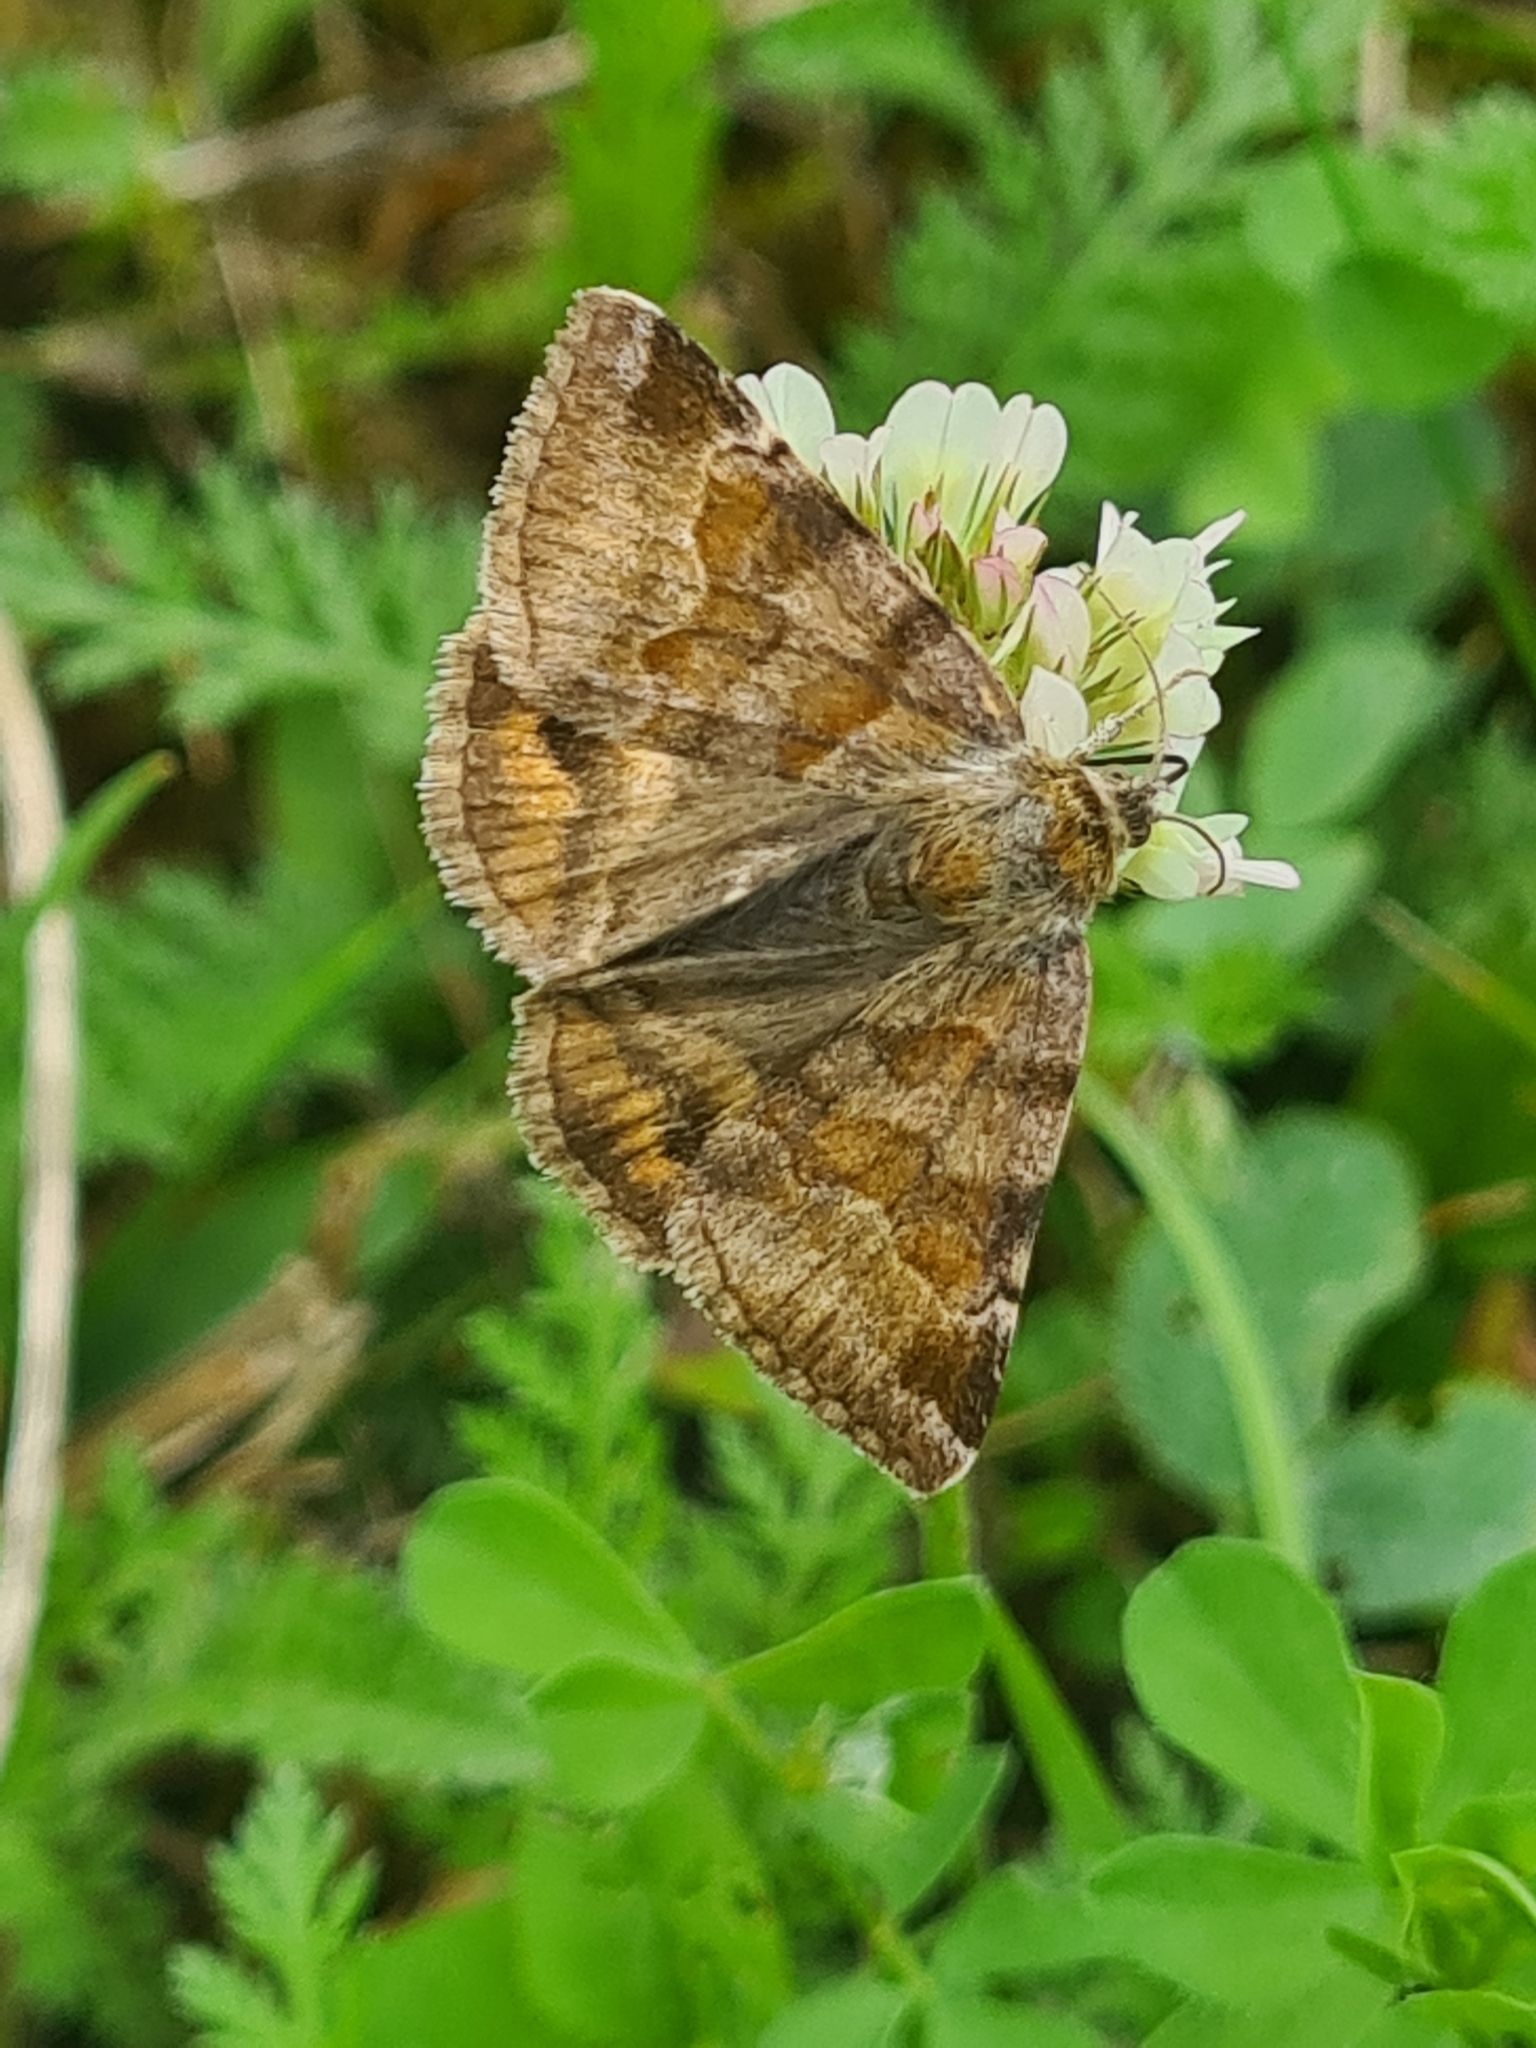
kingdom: Animalia
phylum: Arthropoda
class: Insecta
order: Lepidoptera
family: Erebidae
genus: Euclidia
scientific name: Euclidia glyphica
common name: Burnet companion
